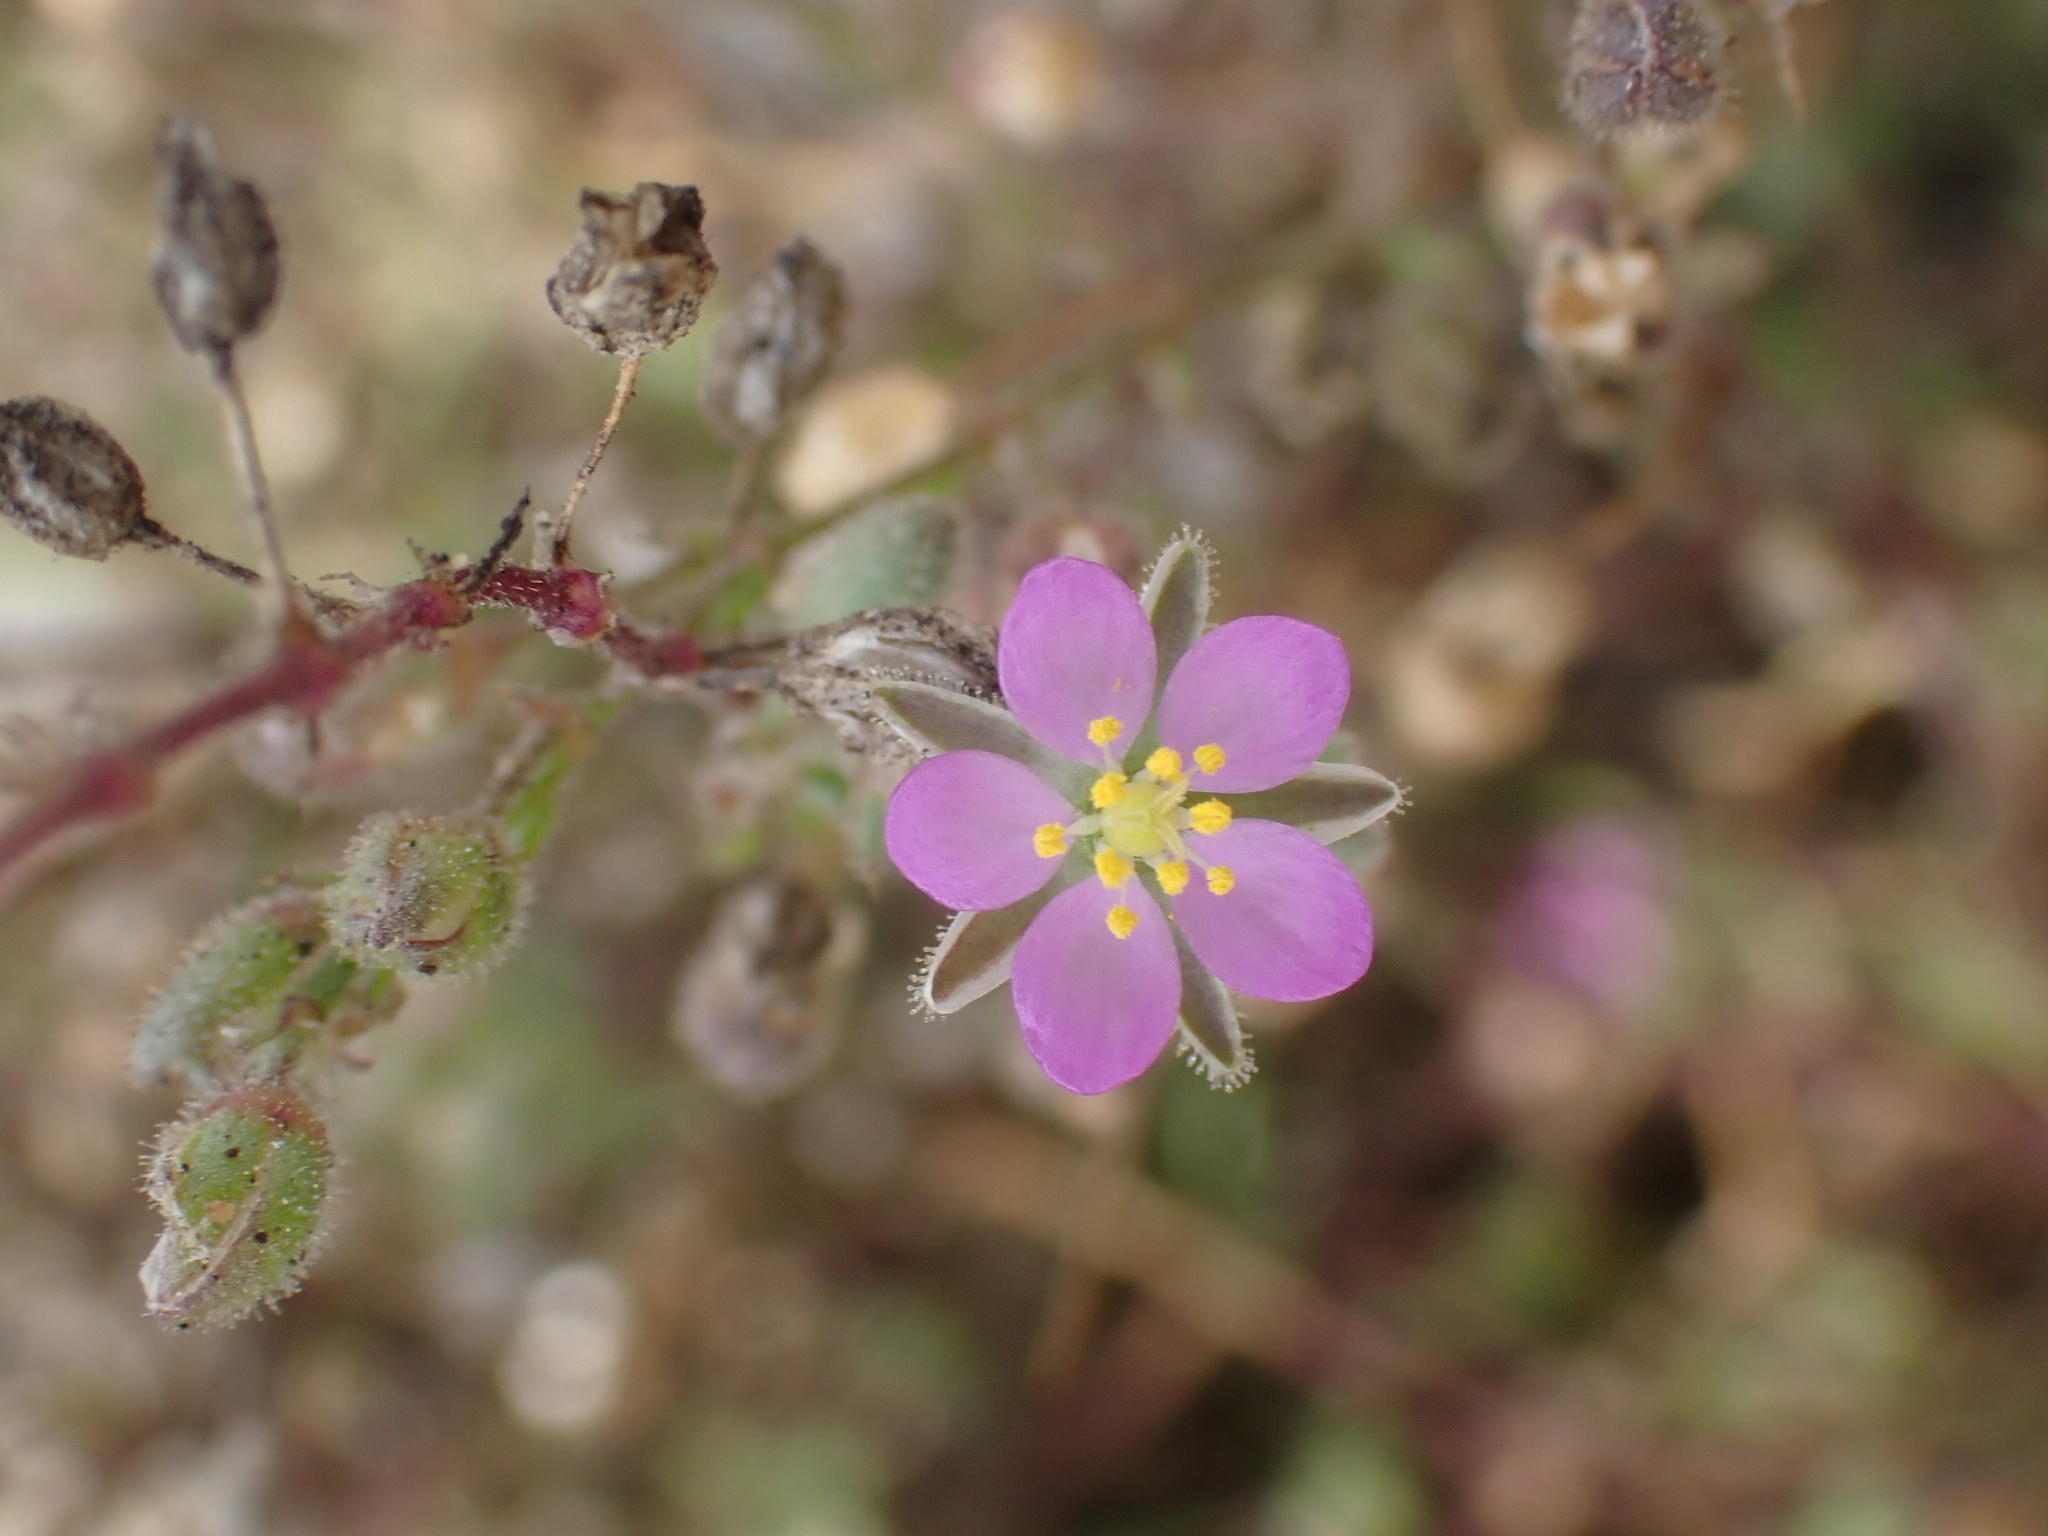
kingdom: Plantae
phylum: Tracheophyta
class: Magnoliopsida
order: Caryophyllales
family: Caryophyllaceae
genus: Spergularia
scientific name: Spergularia rubra
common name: Red sand-spurrey
